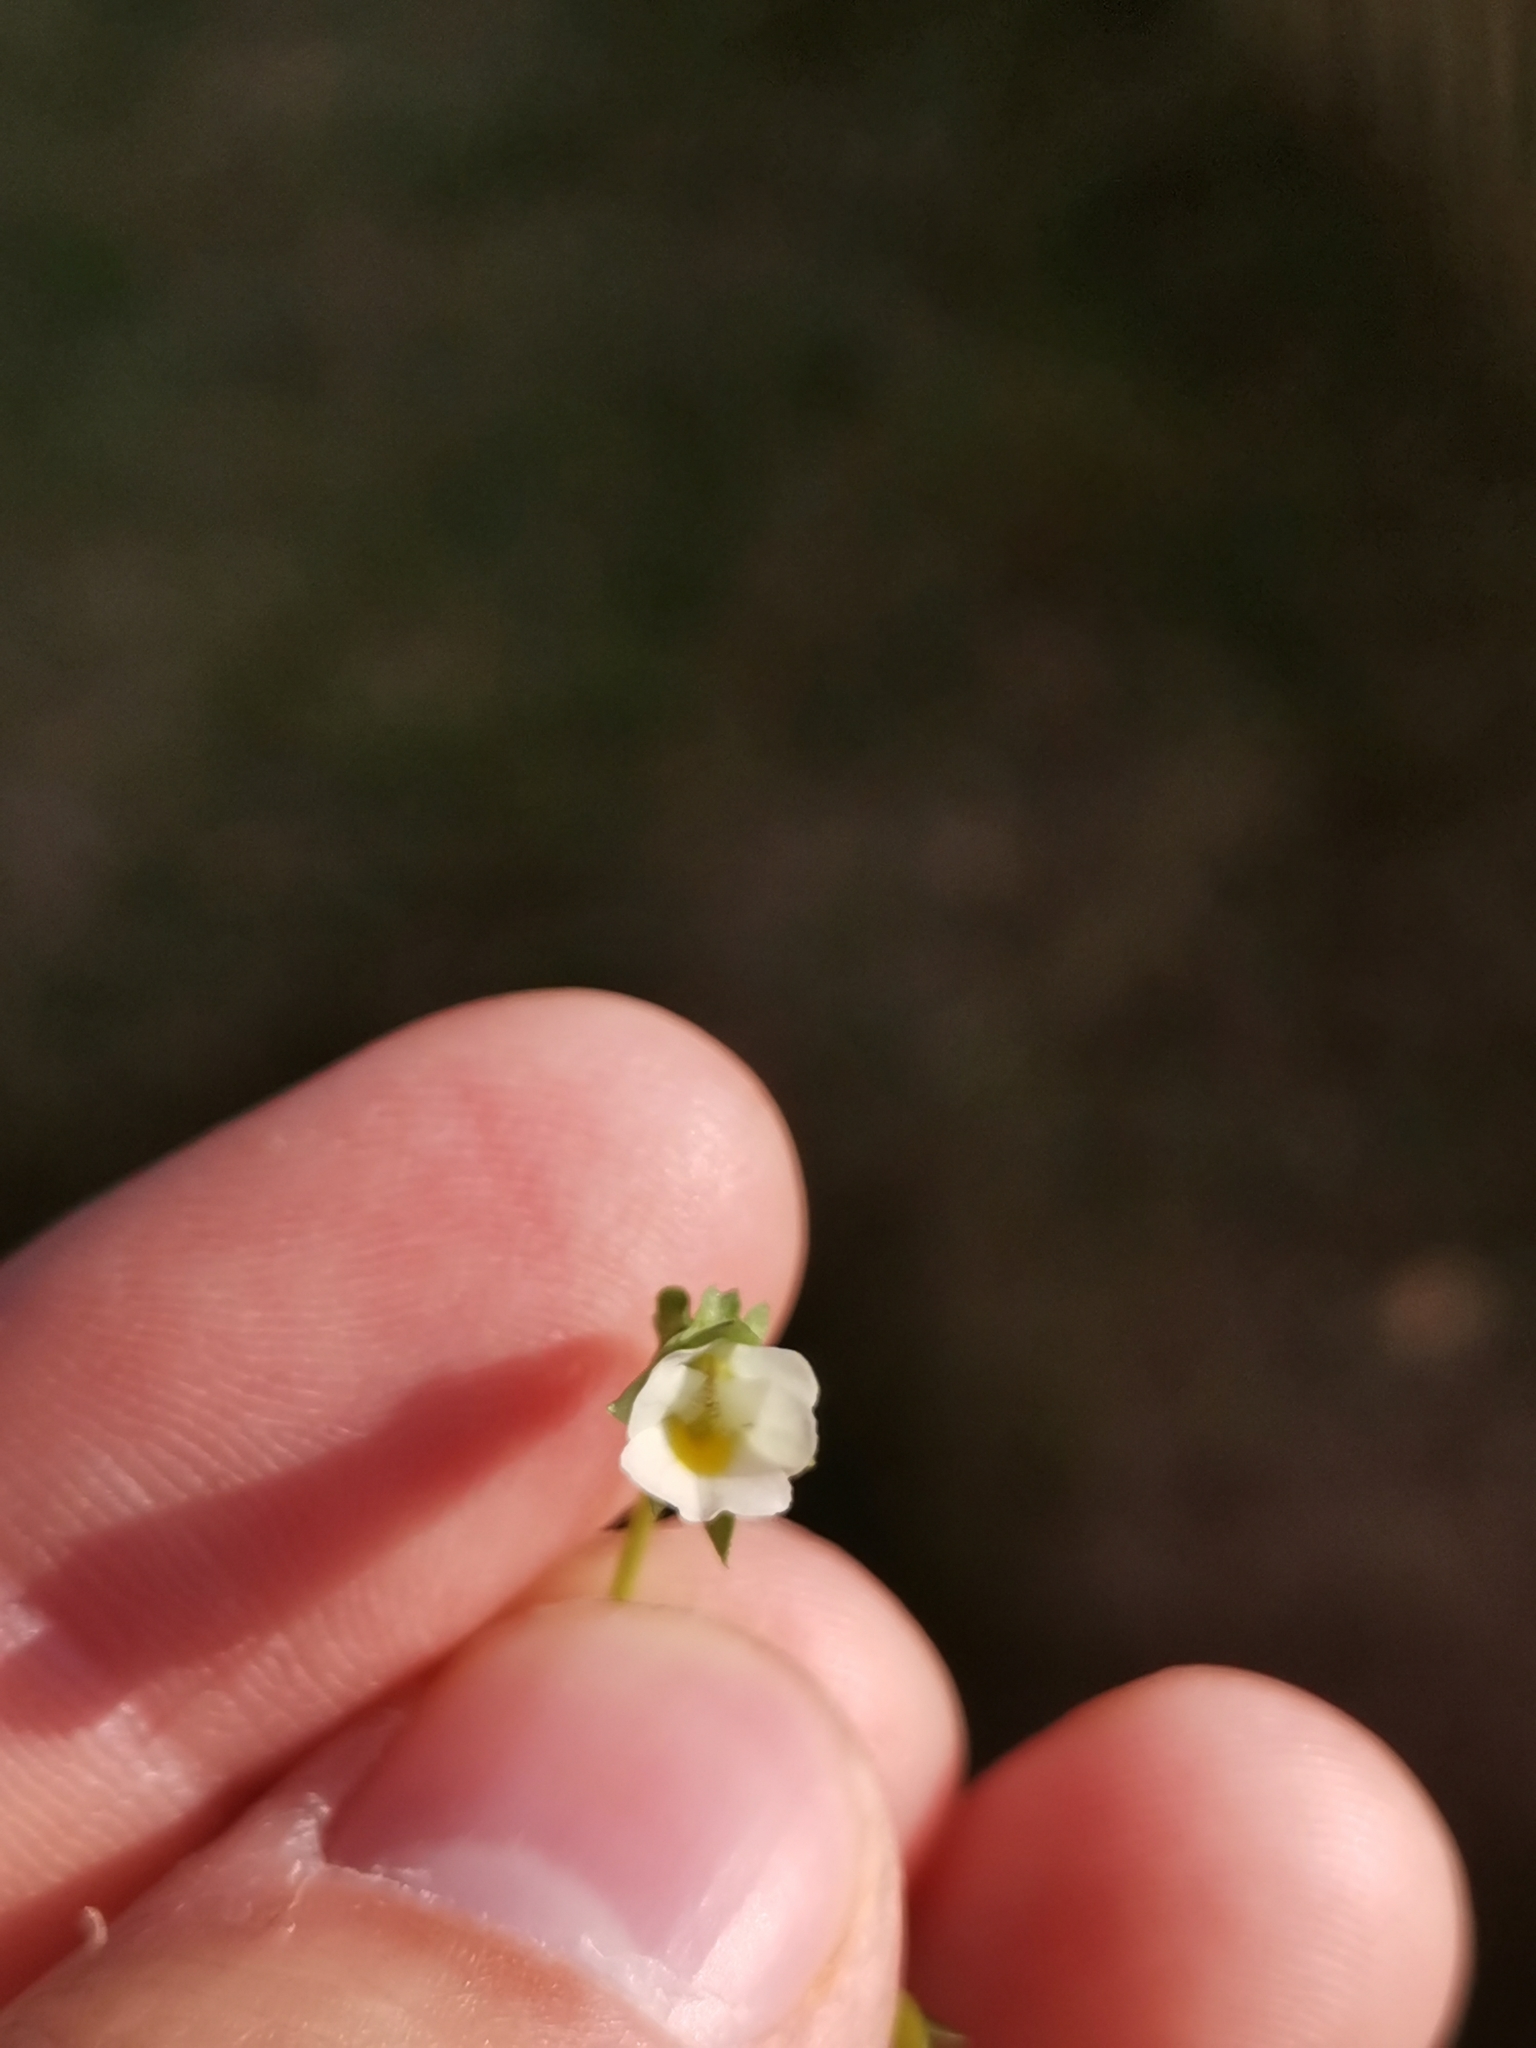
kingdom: Plantae
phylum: Tracheophyta
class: Magnoliopsida
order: Malpighiales
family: Violaceae
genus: Viola
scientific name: Viola kitaibeliana
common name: Dwarf pansy
